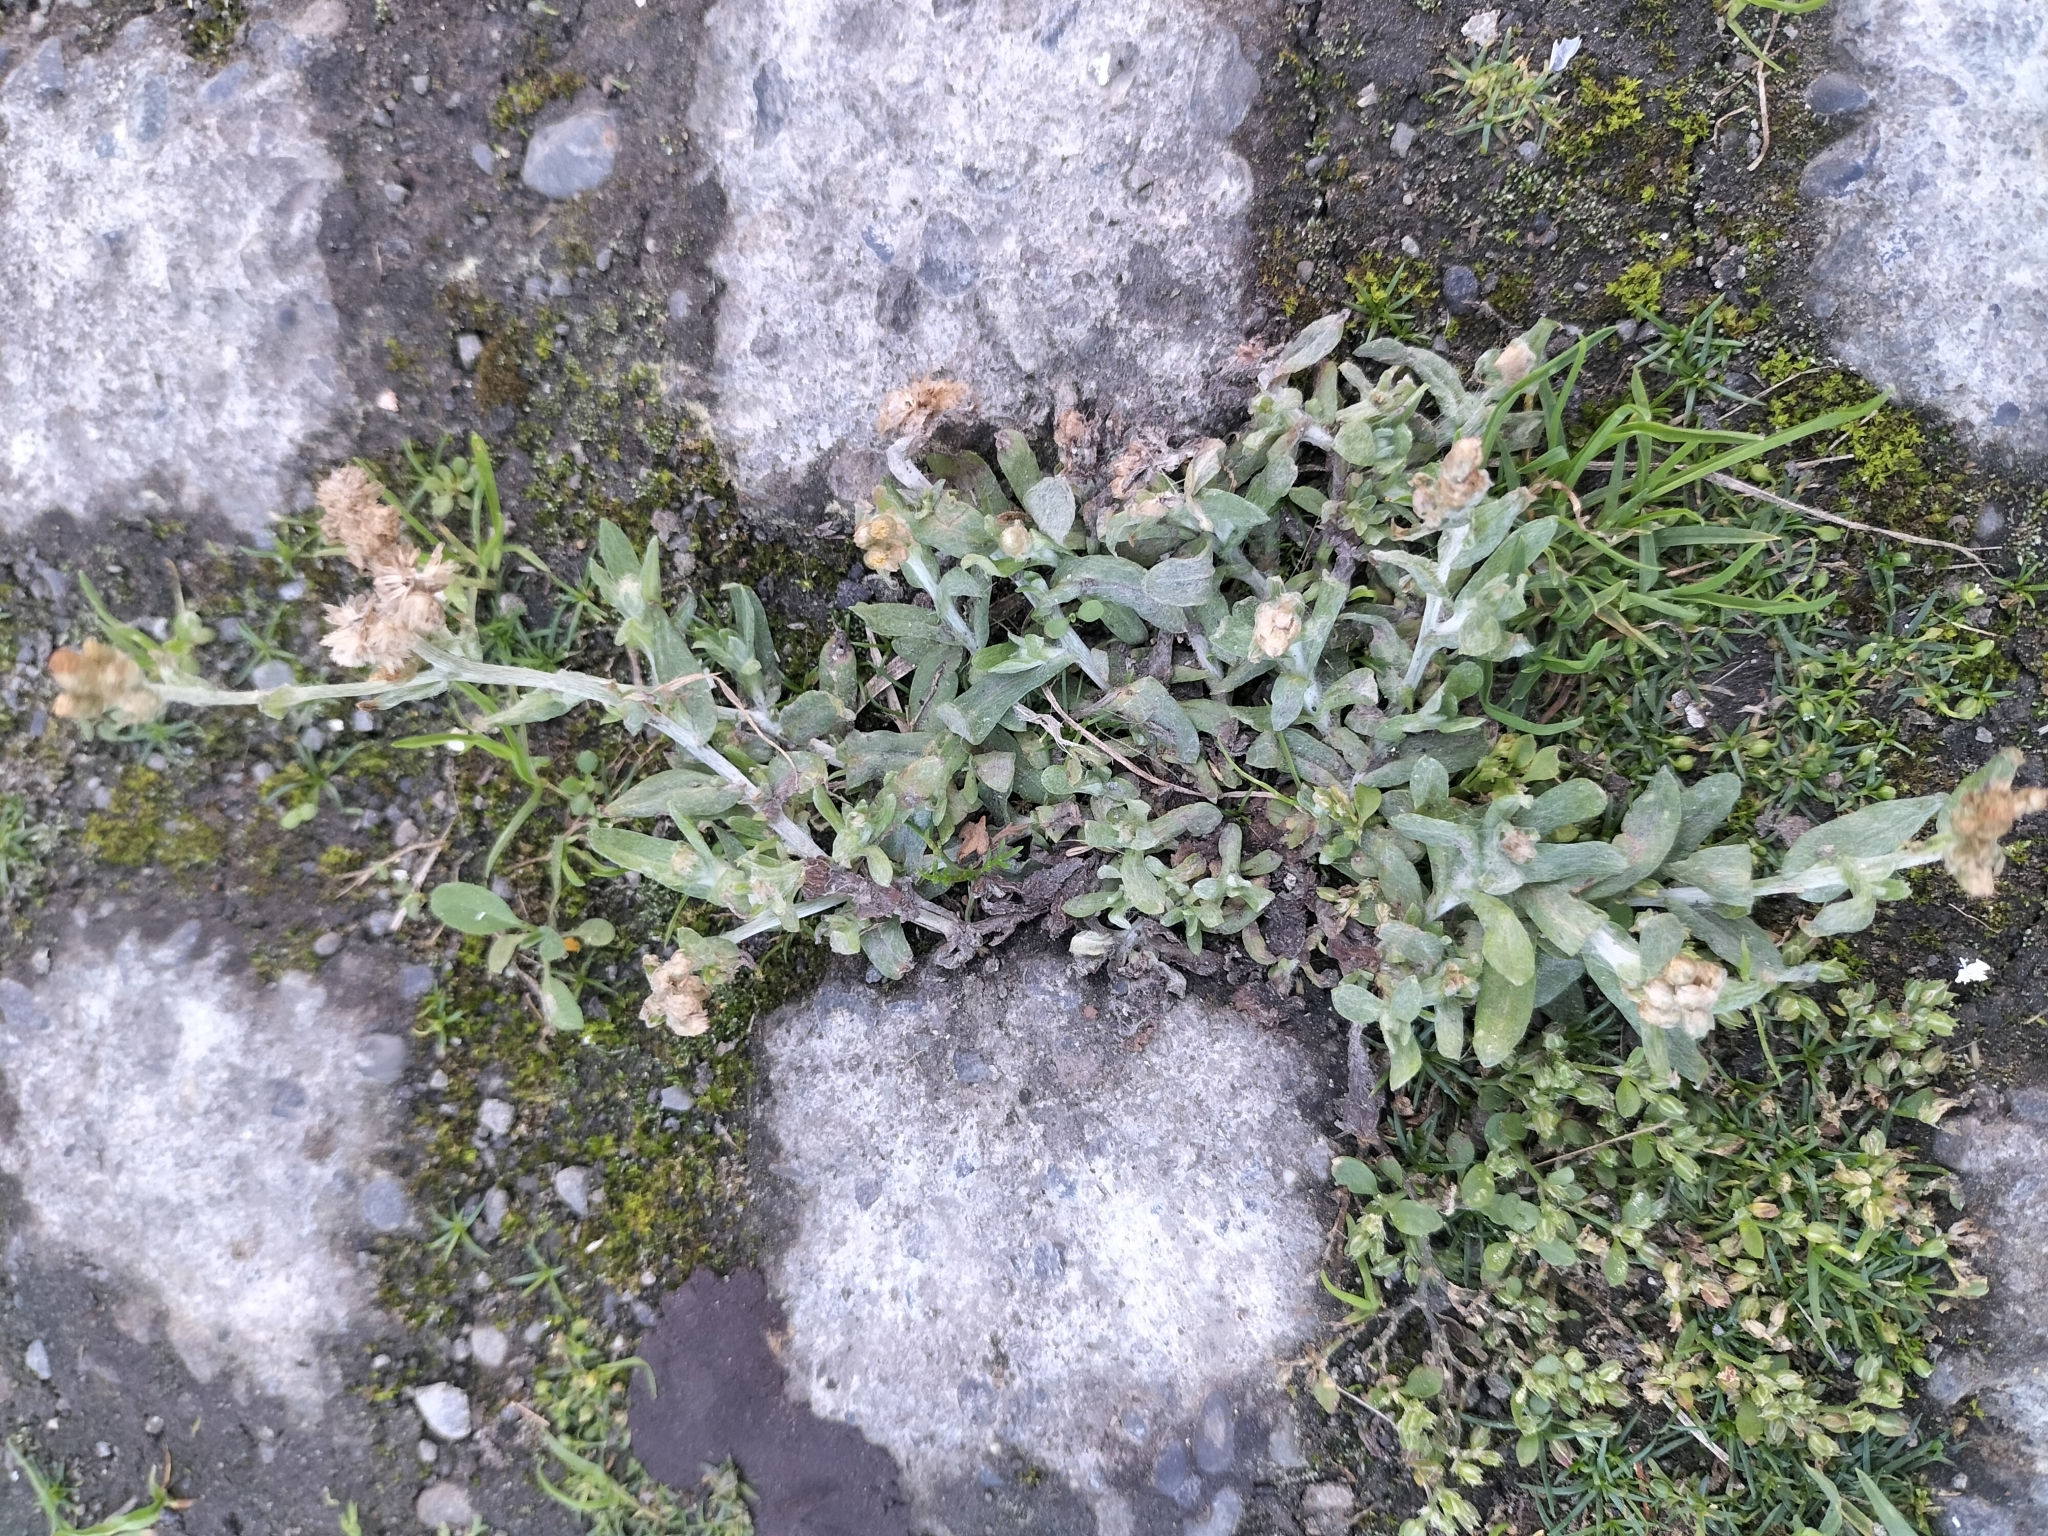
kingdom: Plantae
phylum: Tracheophyta
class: Magnoliopsida
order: Asterales
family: Asteraceae
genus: Helichrysum
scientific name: Helichrysum luteoalbum
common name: Daisy
